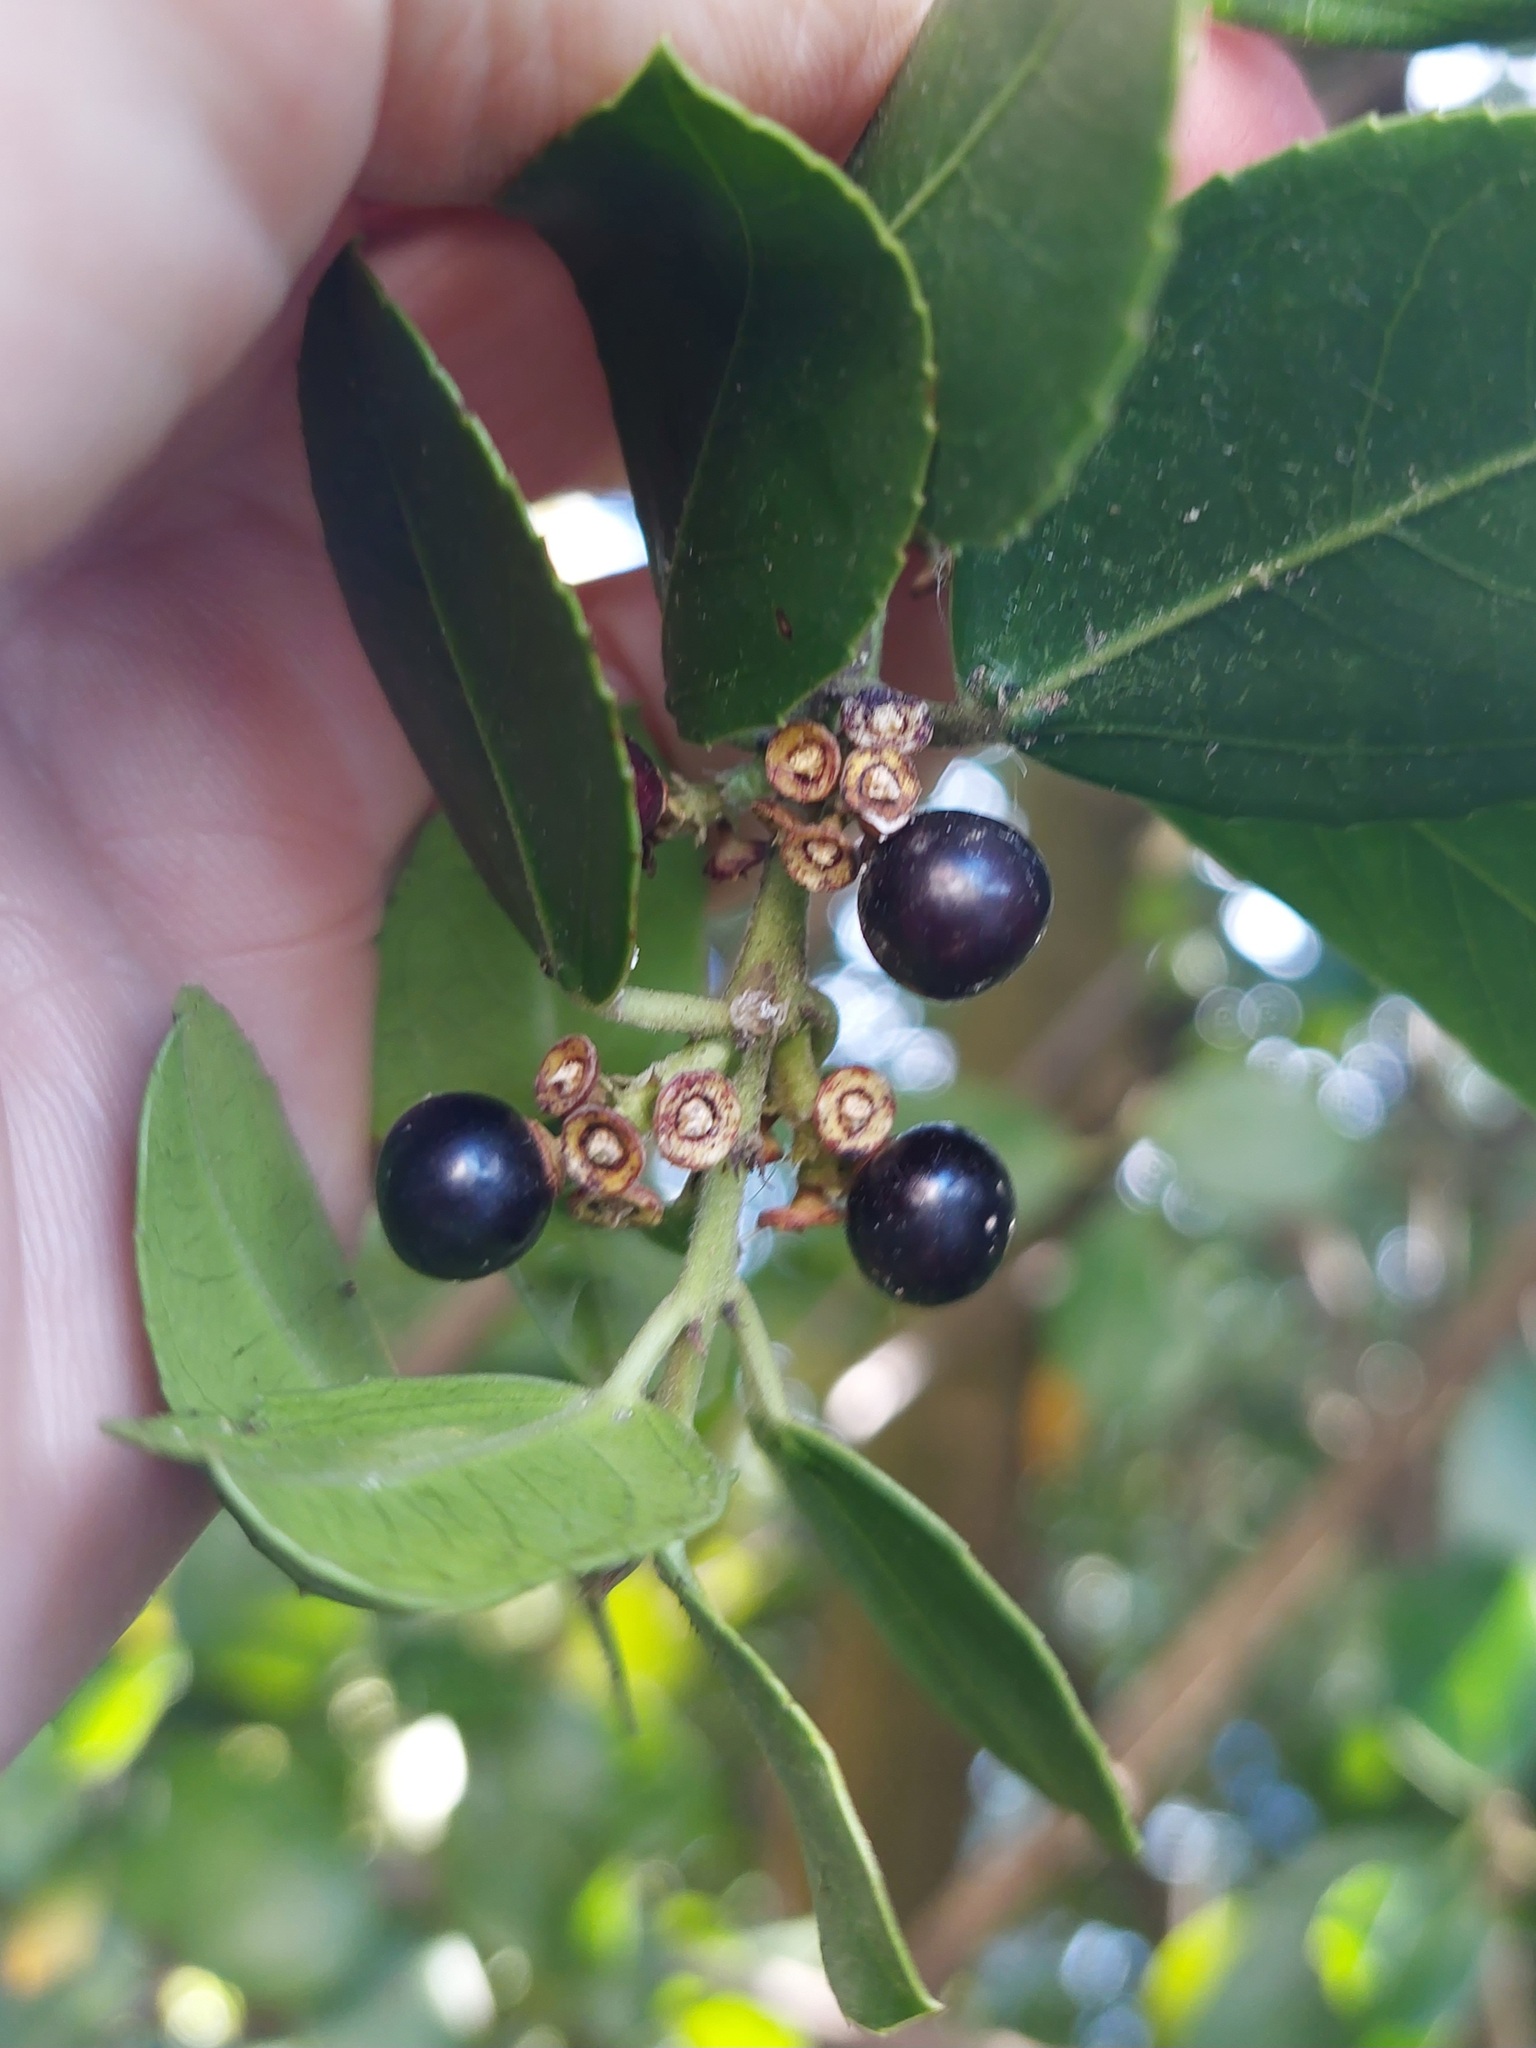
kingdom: Plantae
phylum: Tracheophyta
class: Magnoliopsida
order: Rosales
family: Rhamnaceae
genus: Rhamnus
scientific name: Rhamnus alaternus
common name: Mediterranean buckthorn
